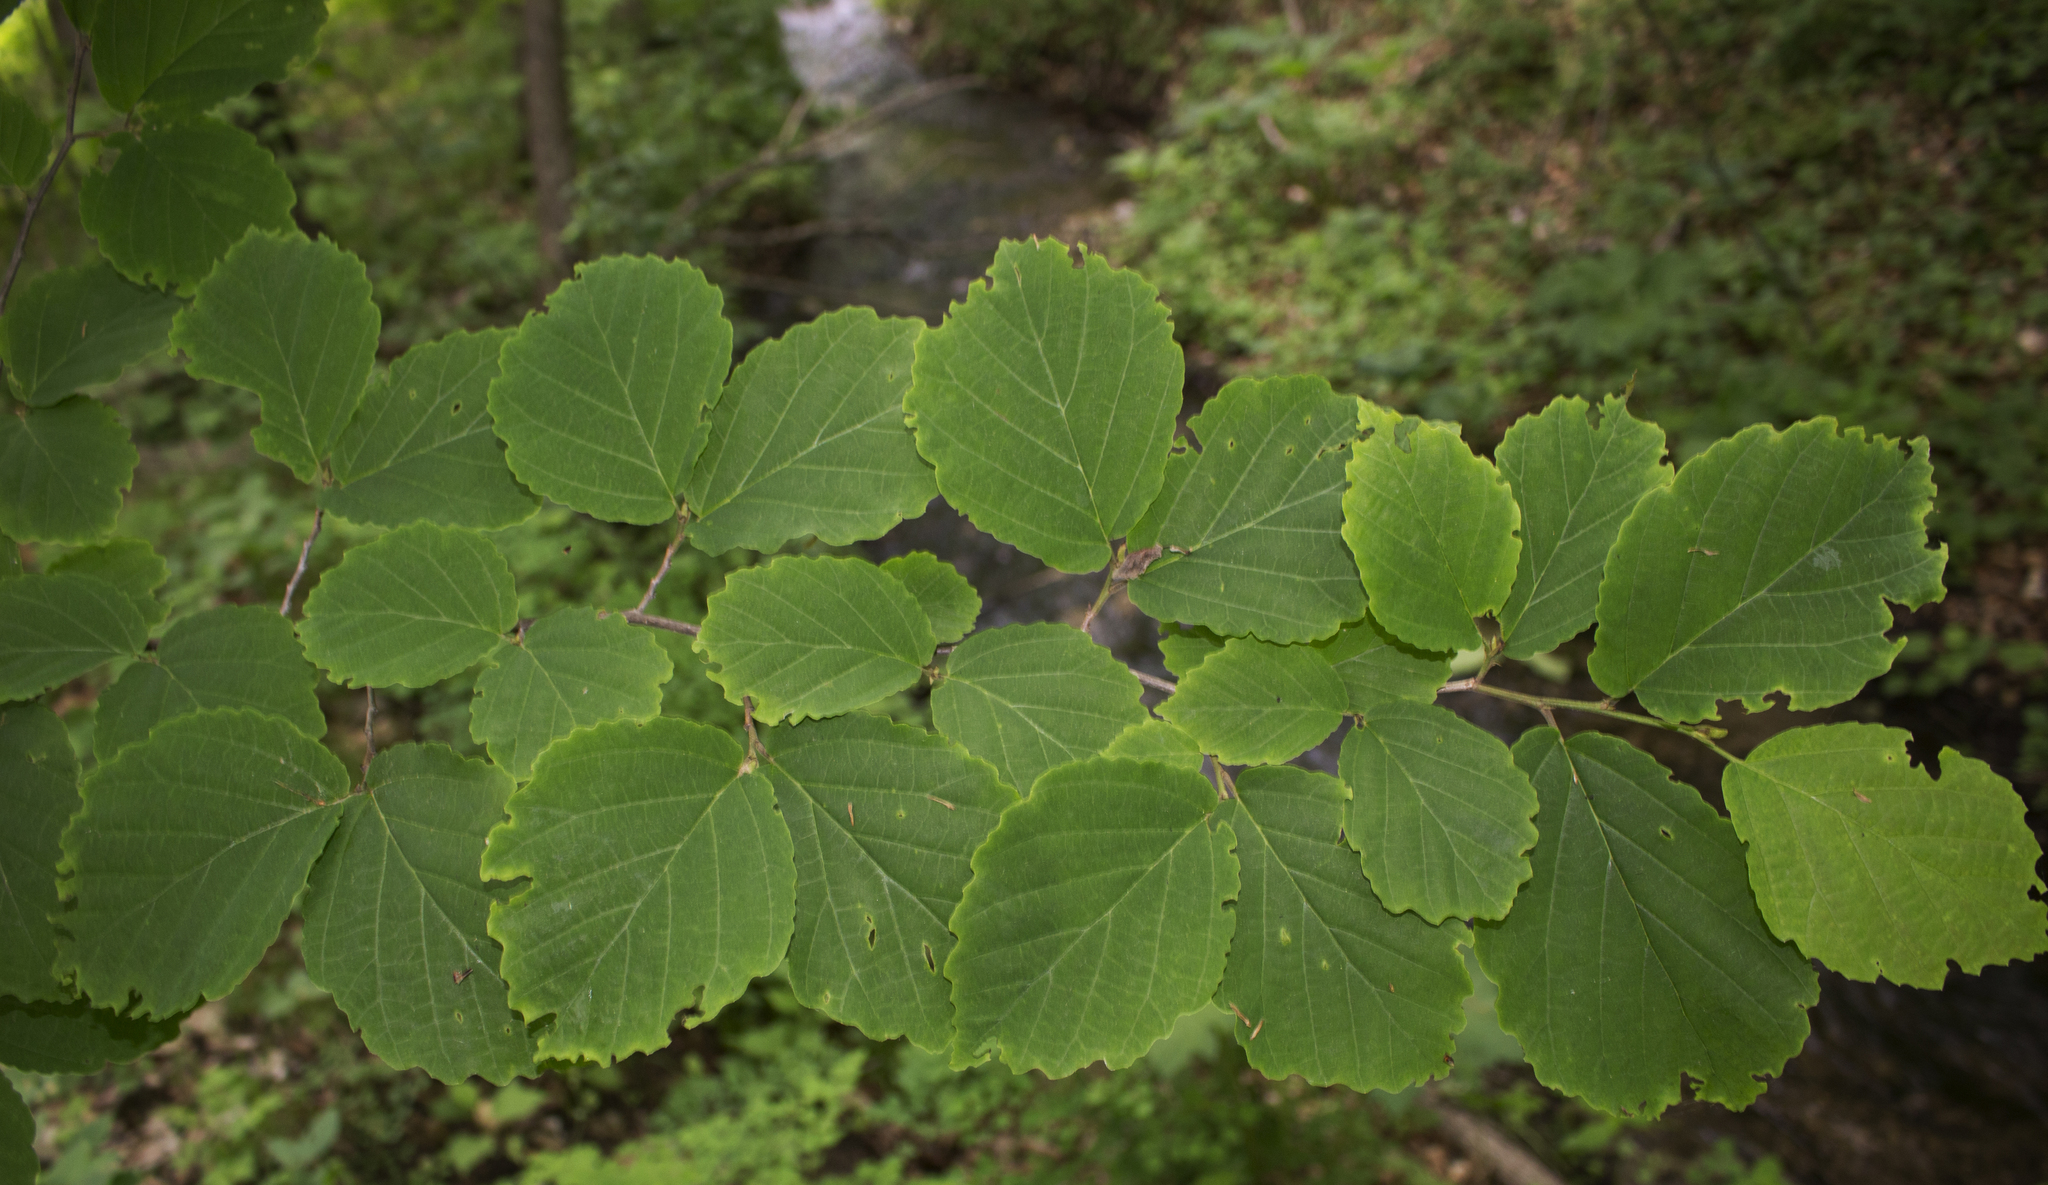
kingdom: Plantae
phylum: Tracheophyta
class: Magnoliopsida
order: Saxifragales
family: Hamamelidaceae
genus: Hamamelis
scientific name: Hamamelis virginiana
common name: Witch-hazel
